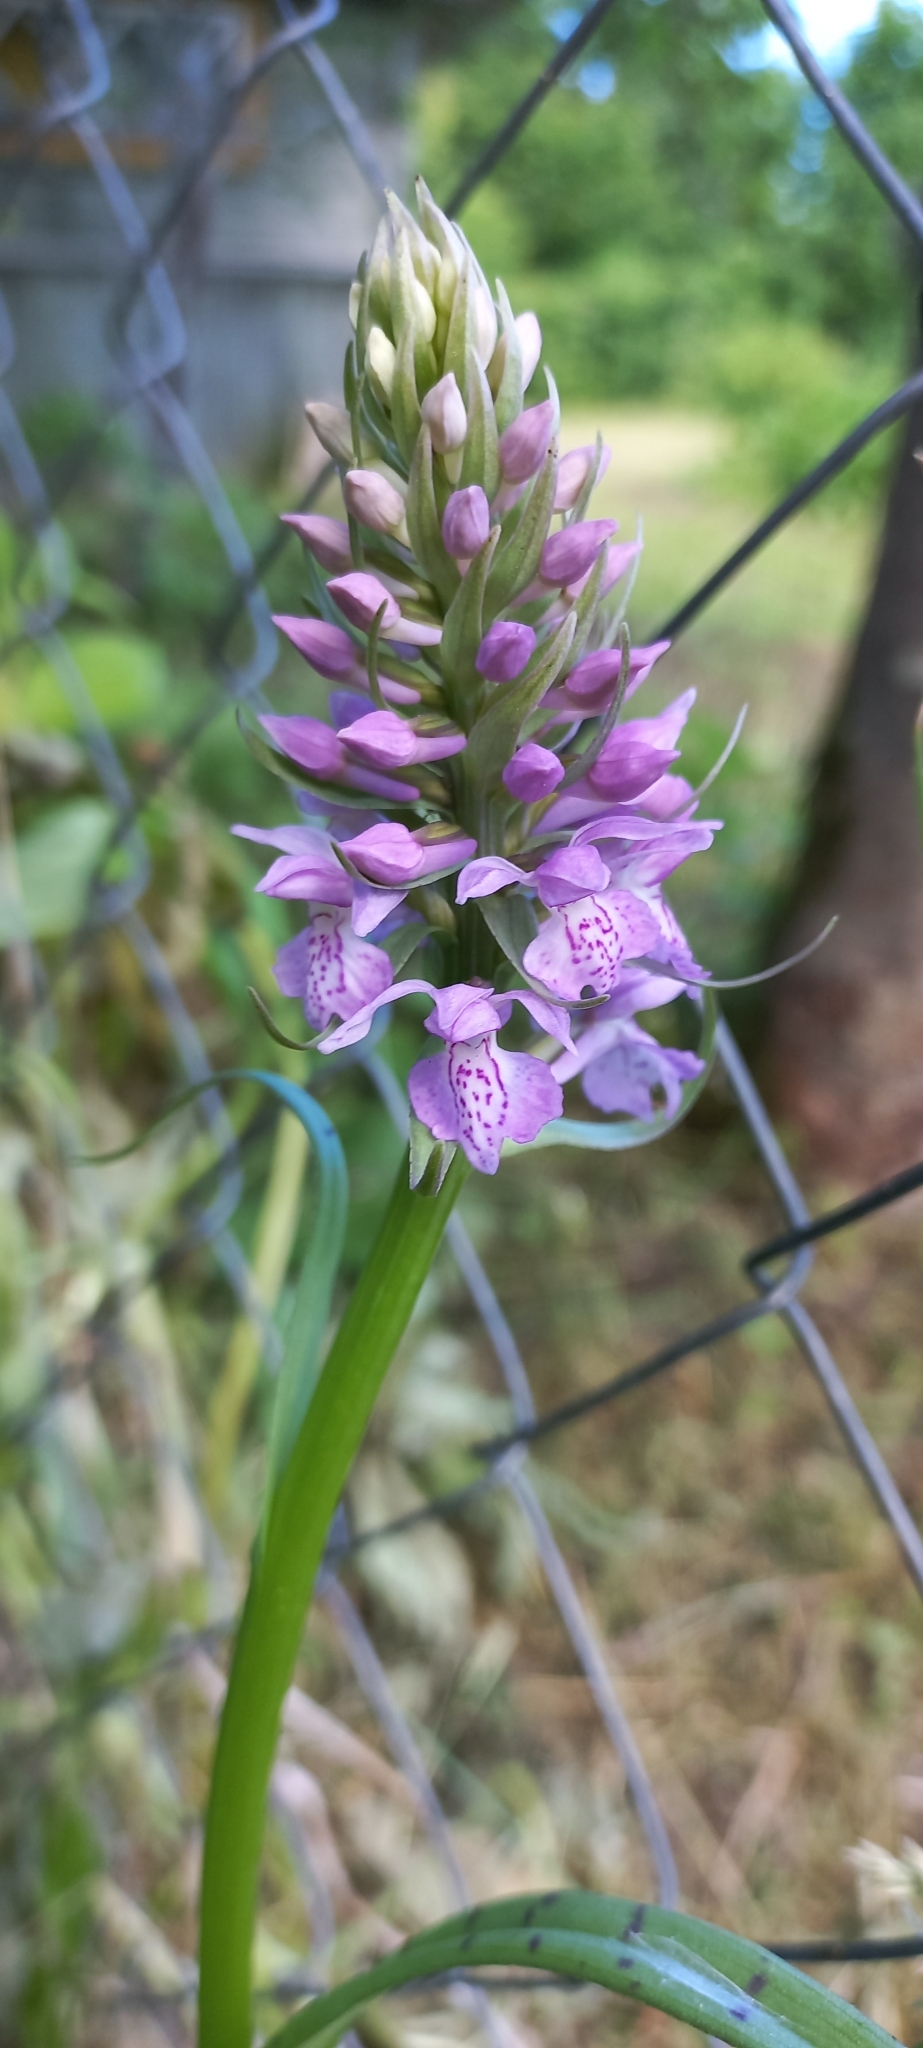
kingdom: Plantae
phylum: Tracheophyta
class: Liliopsida
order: Asparagales
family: Orchidaceae
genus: Dactylorhiza
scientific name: Dactylorhiza majalis
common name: Marsh orchid
